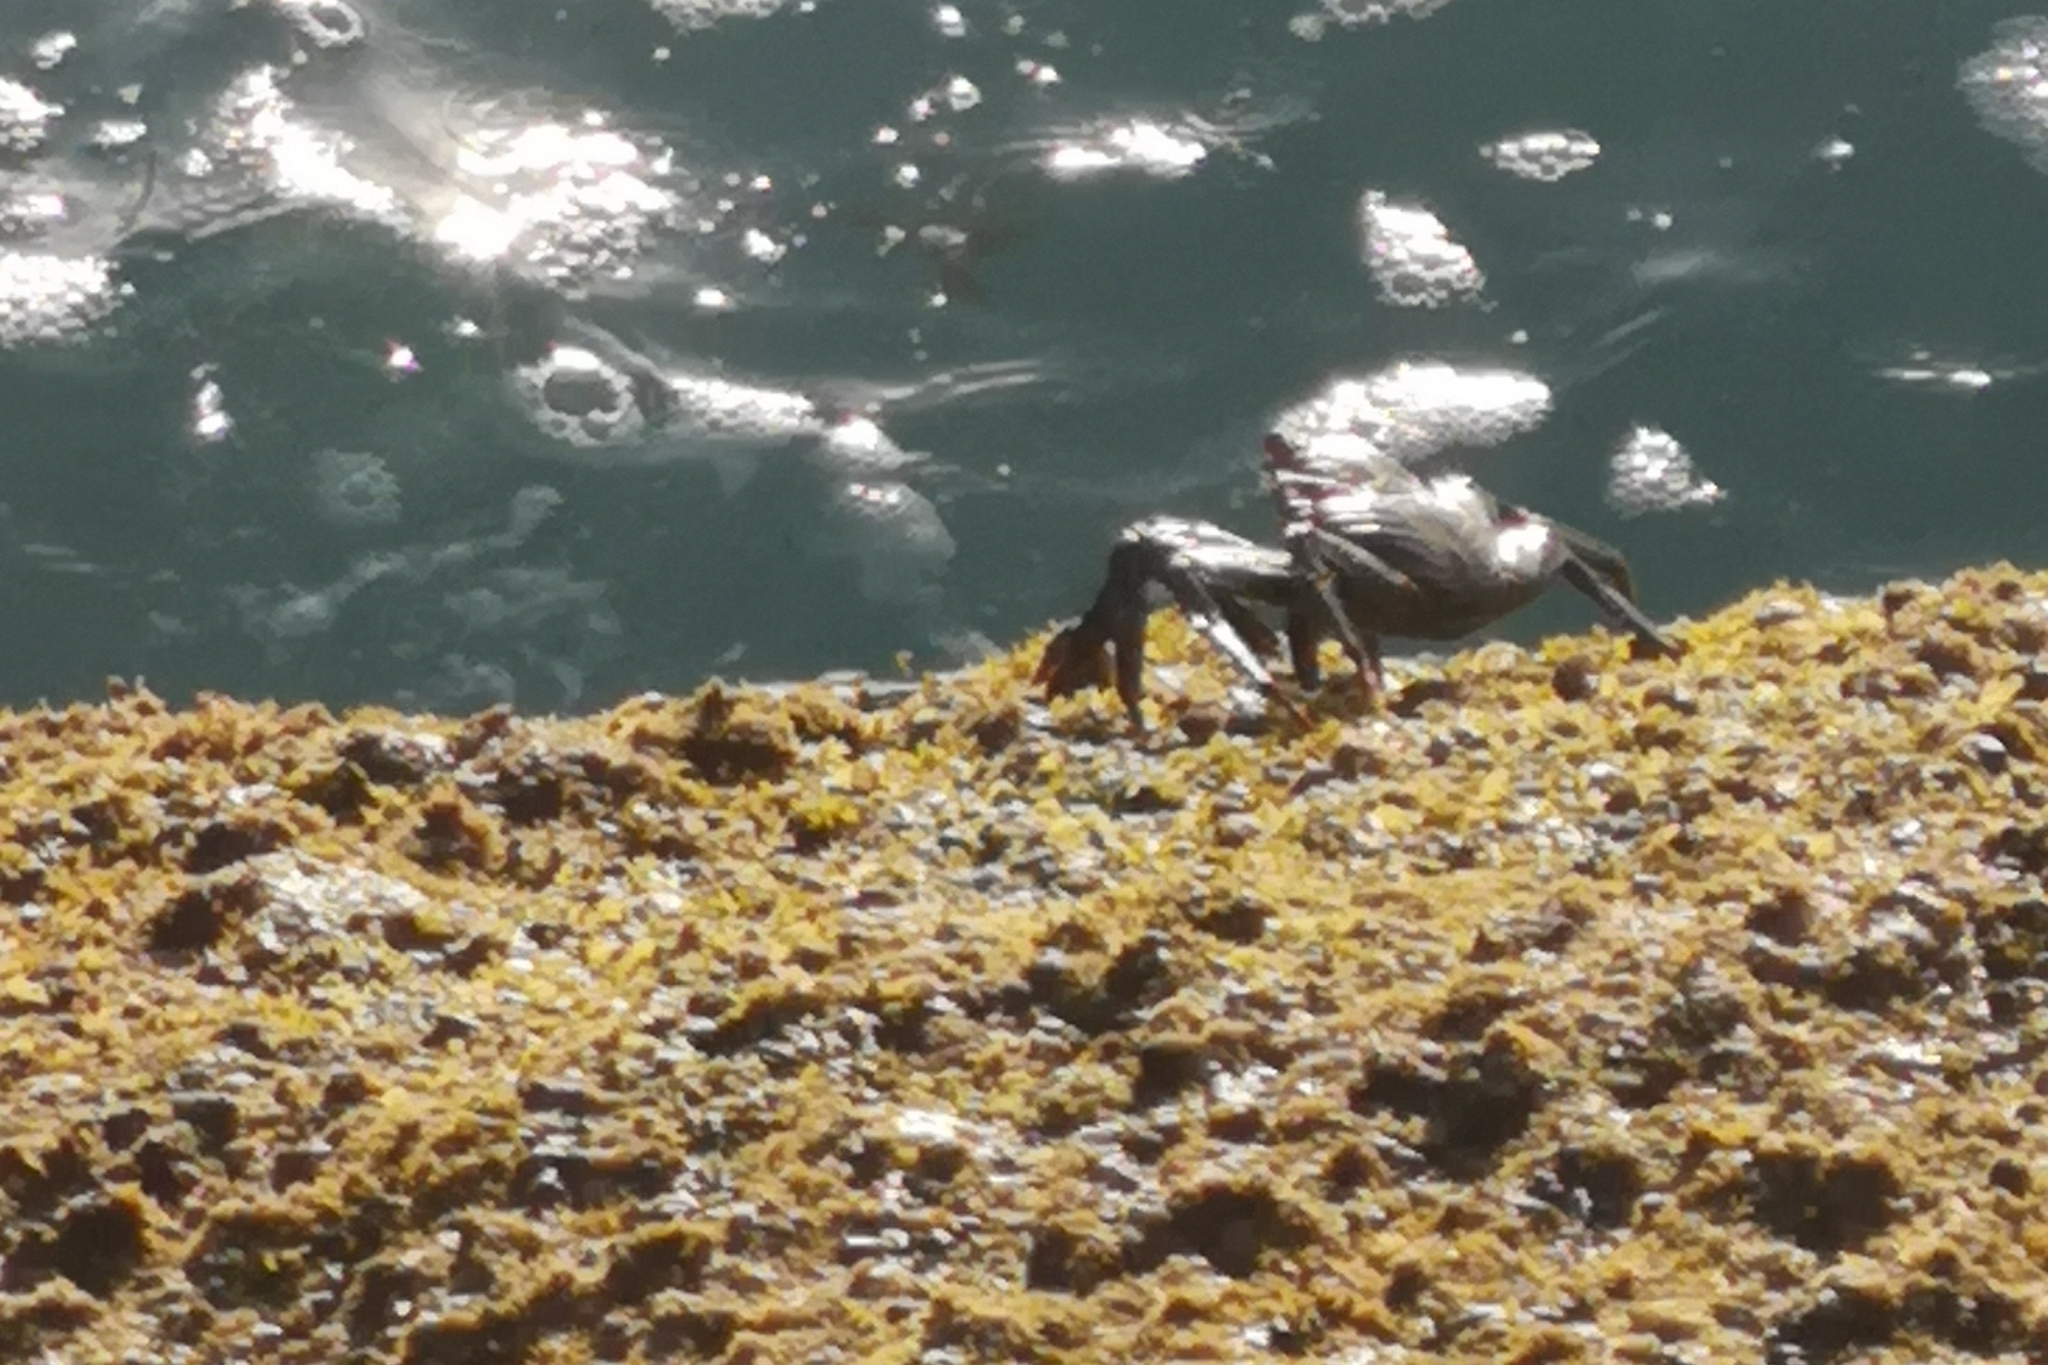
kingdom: Animalia
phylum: Arthropoda
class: Malacostraca
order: Decapoda
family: Grapsidae
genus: Grapsus
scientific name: Grapsus adscensionis
